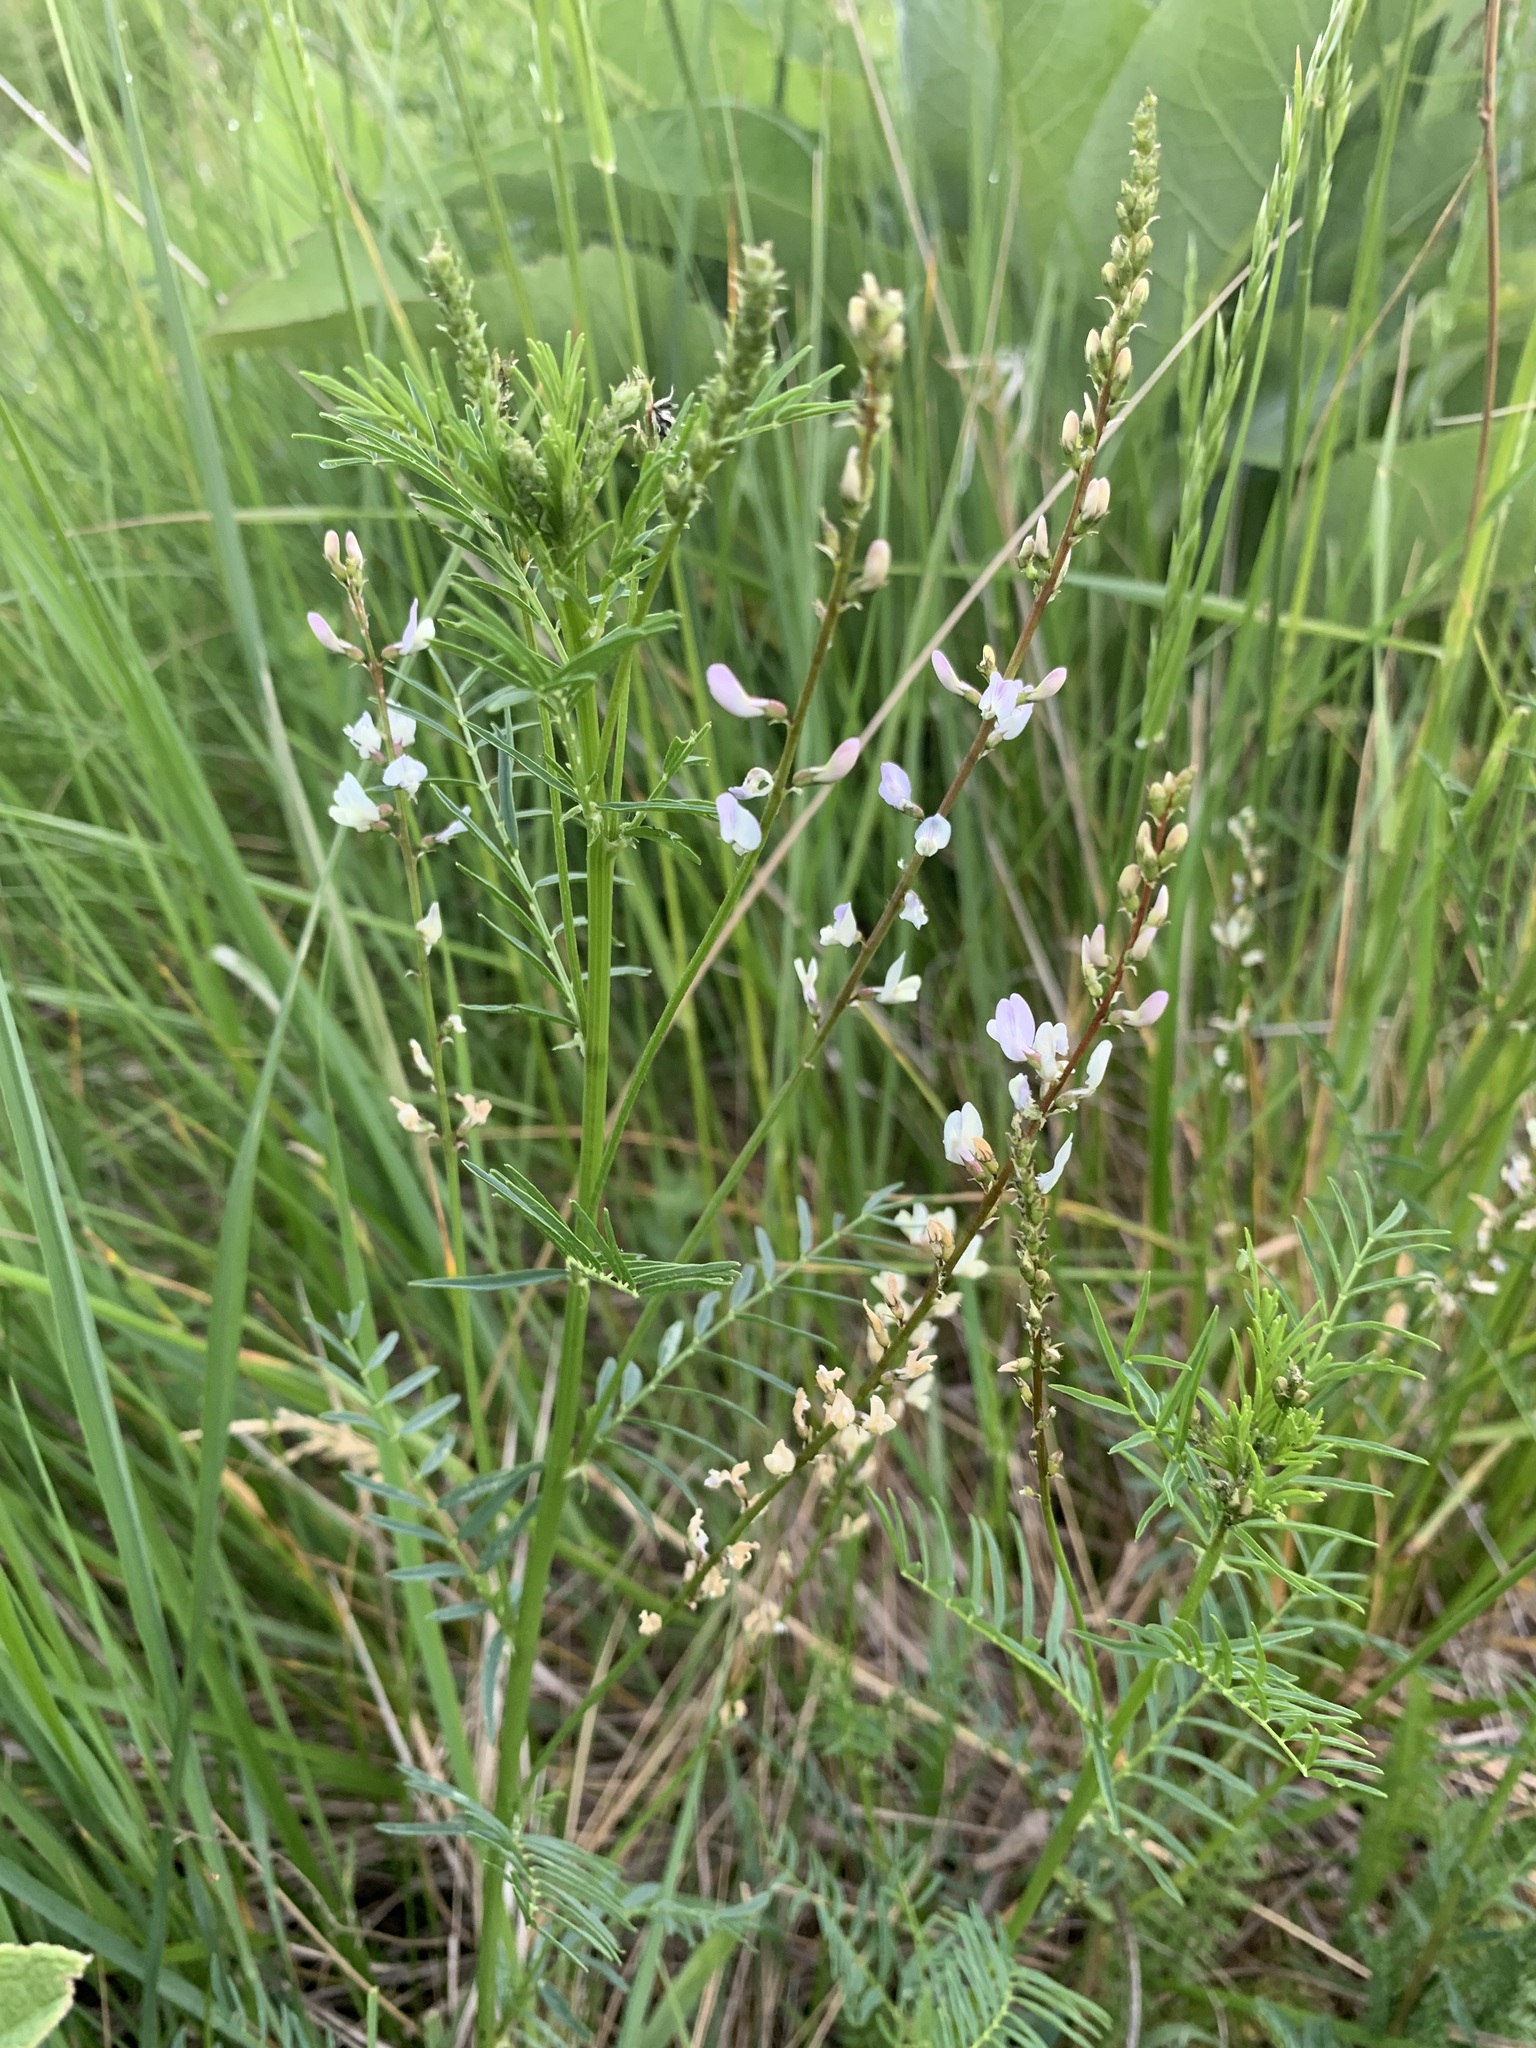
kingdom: Plantae
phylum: Tracheophyta
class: Magnoliopsida
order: Fabales
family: Fabaceae
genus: Astragalus
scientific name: Astragalus sulcatus
